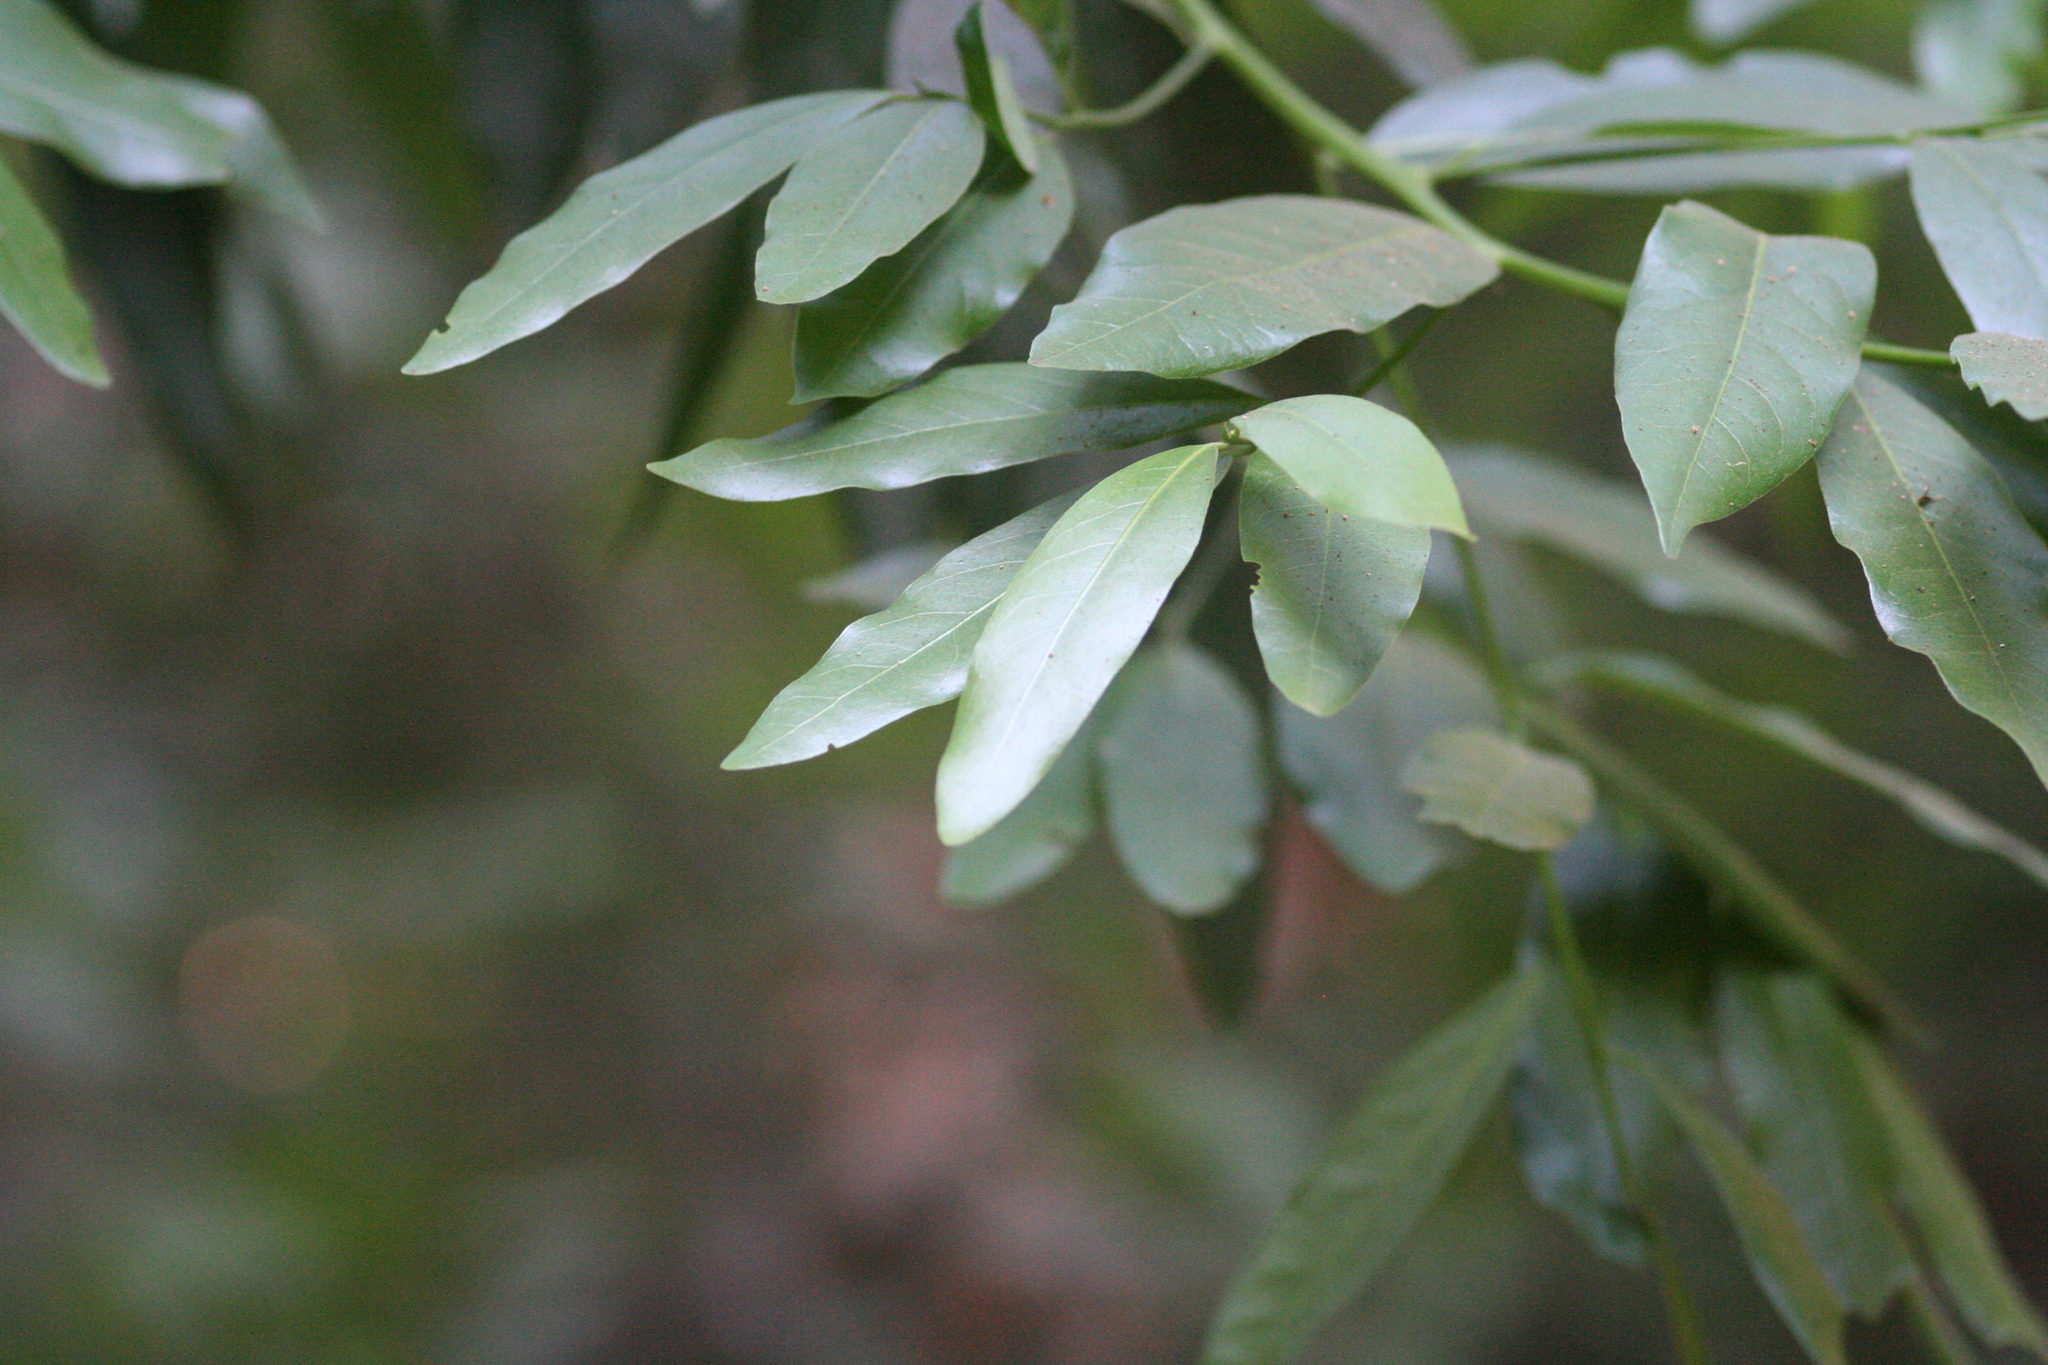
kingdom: Plantae
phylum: Tracheophyta
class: Magnoliopsida
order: Laurales
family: Lauraceae
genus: Umbellularia
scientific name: Umbellularia californica
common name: California bay
